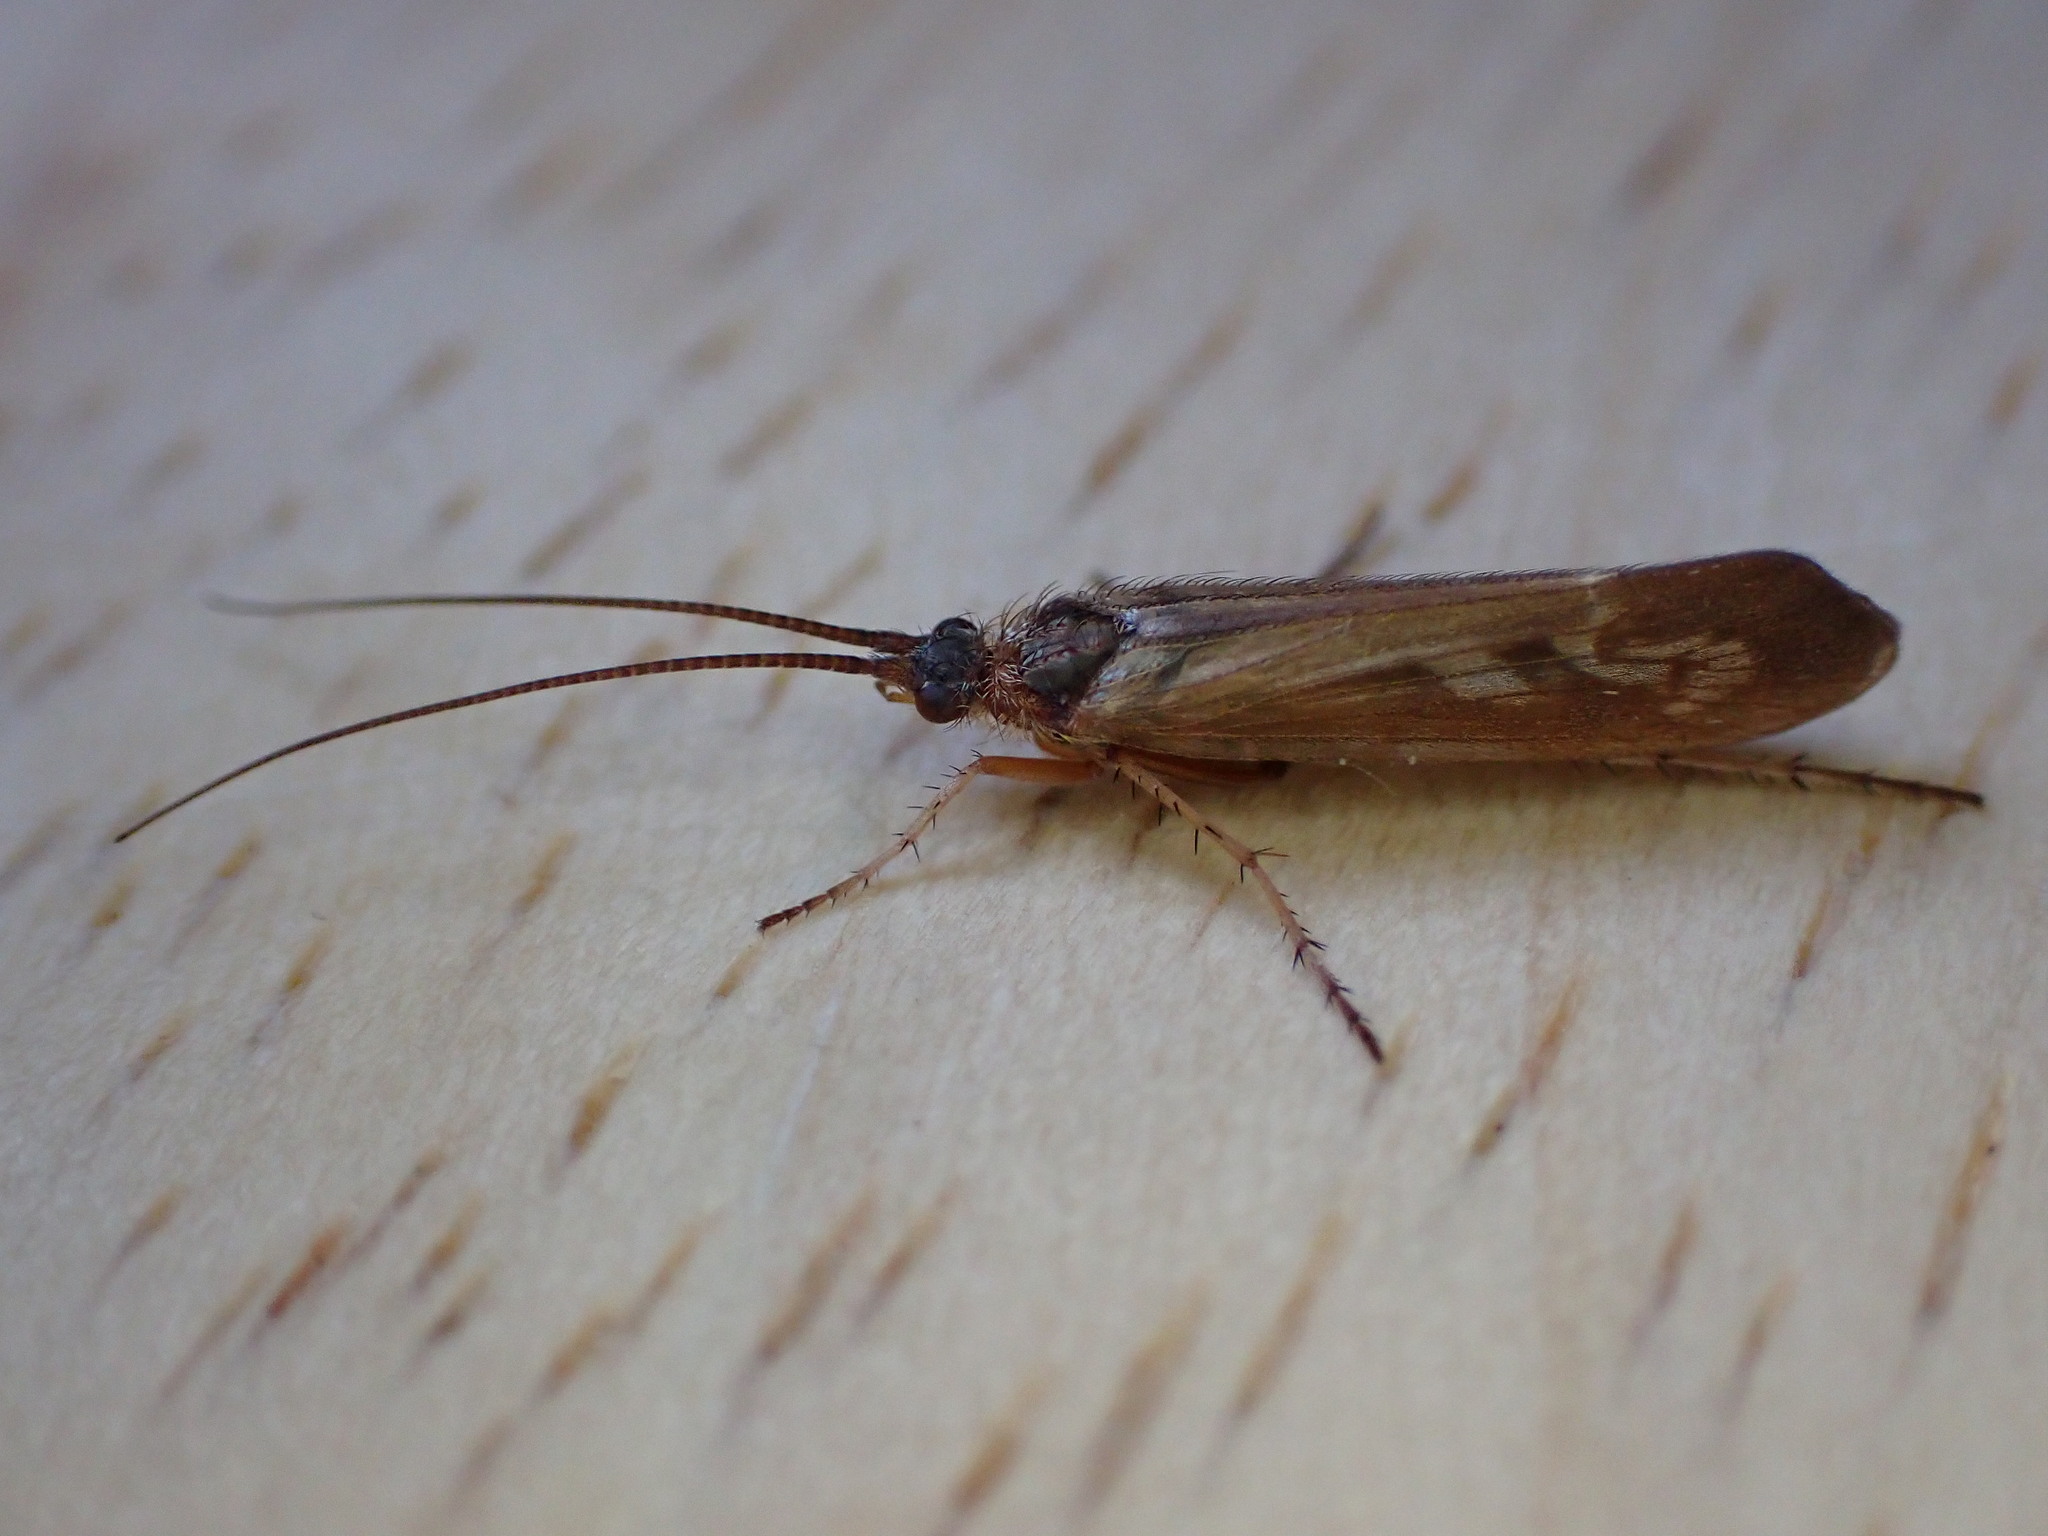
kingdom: Animalia
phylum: Arthropoda
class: Insecta
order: Trichoptera
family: Limnephilidae
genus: Limnephilus
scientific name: Limnephilus auricula
